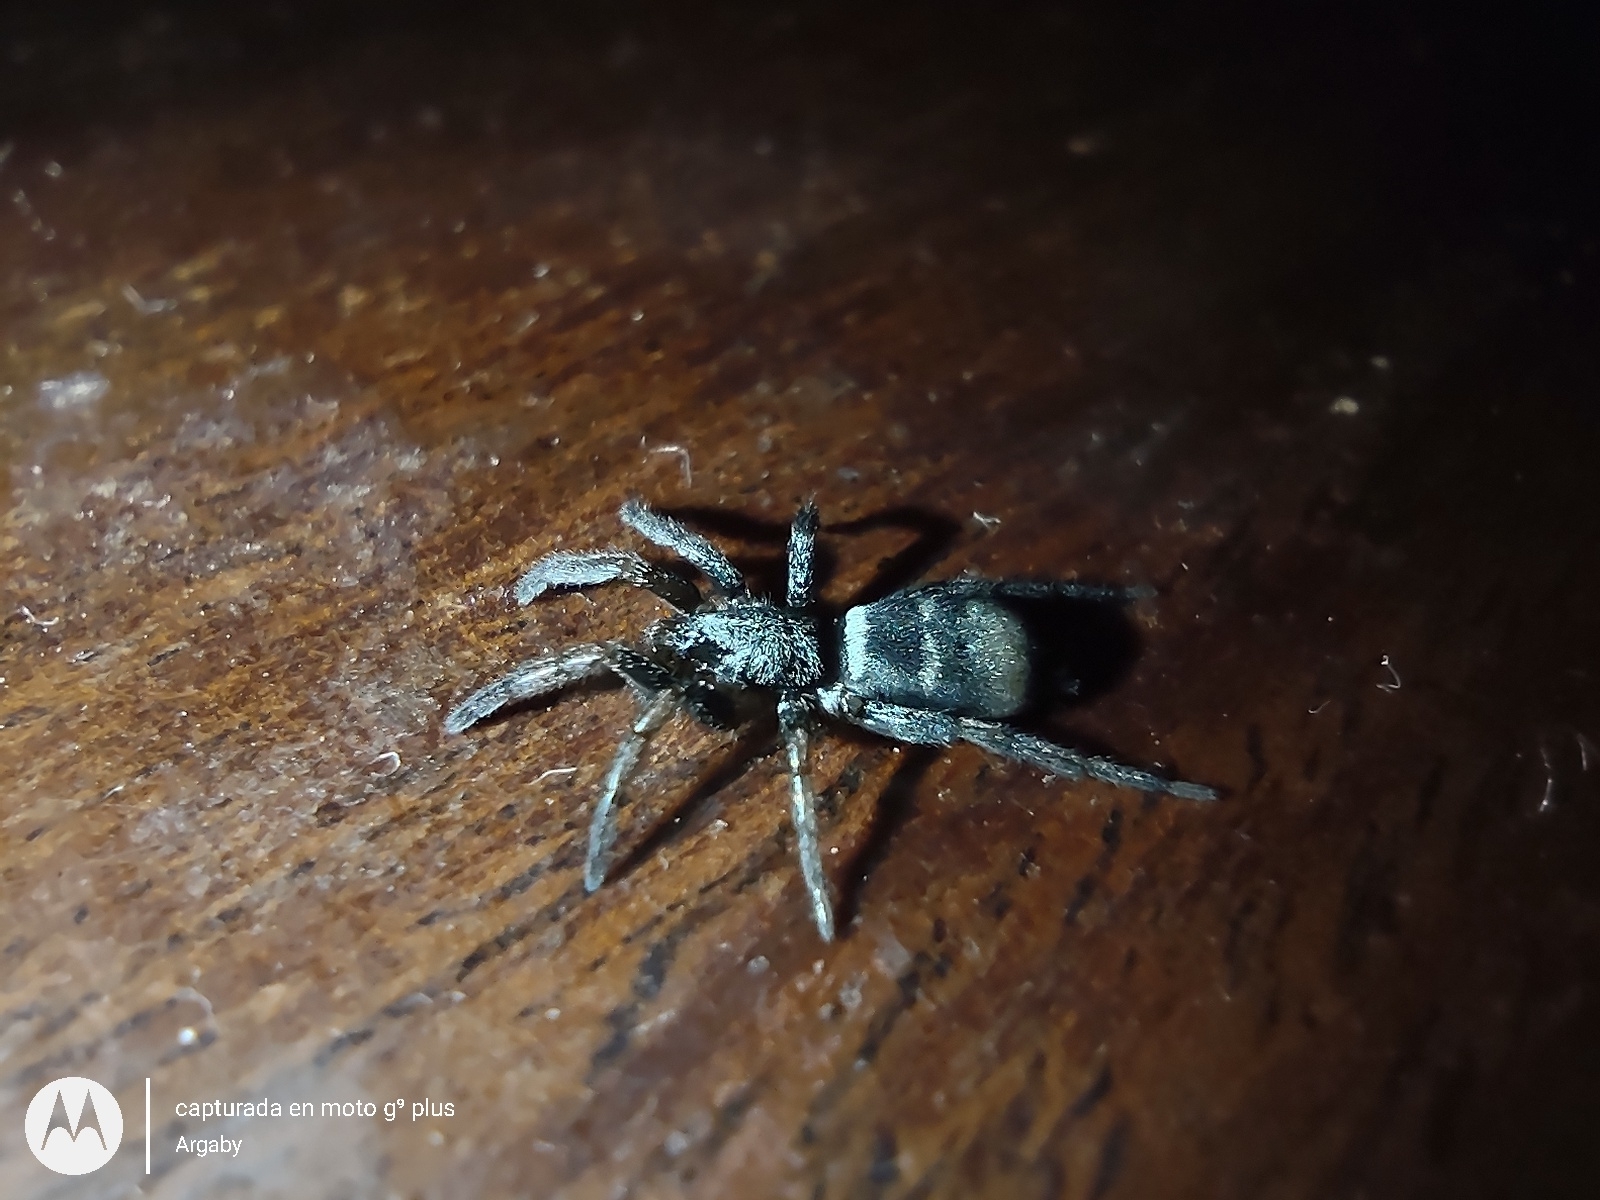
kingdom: Animalia
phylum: Arthropoda
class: Arachnida
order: Araneae
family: Gnaphosidae
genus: Latonigena
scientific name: Latonigena auricomis
